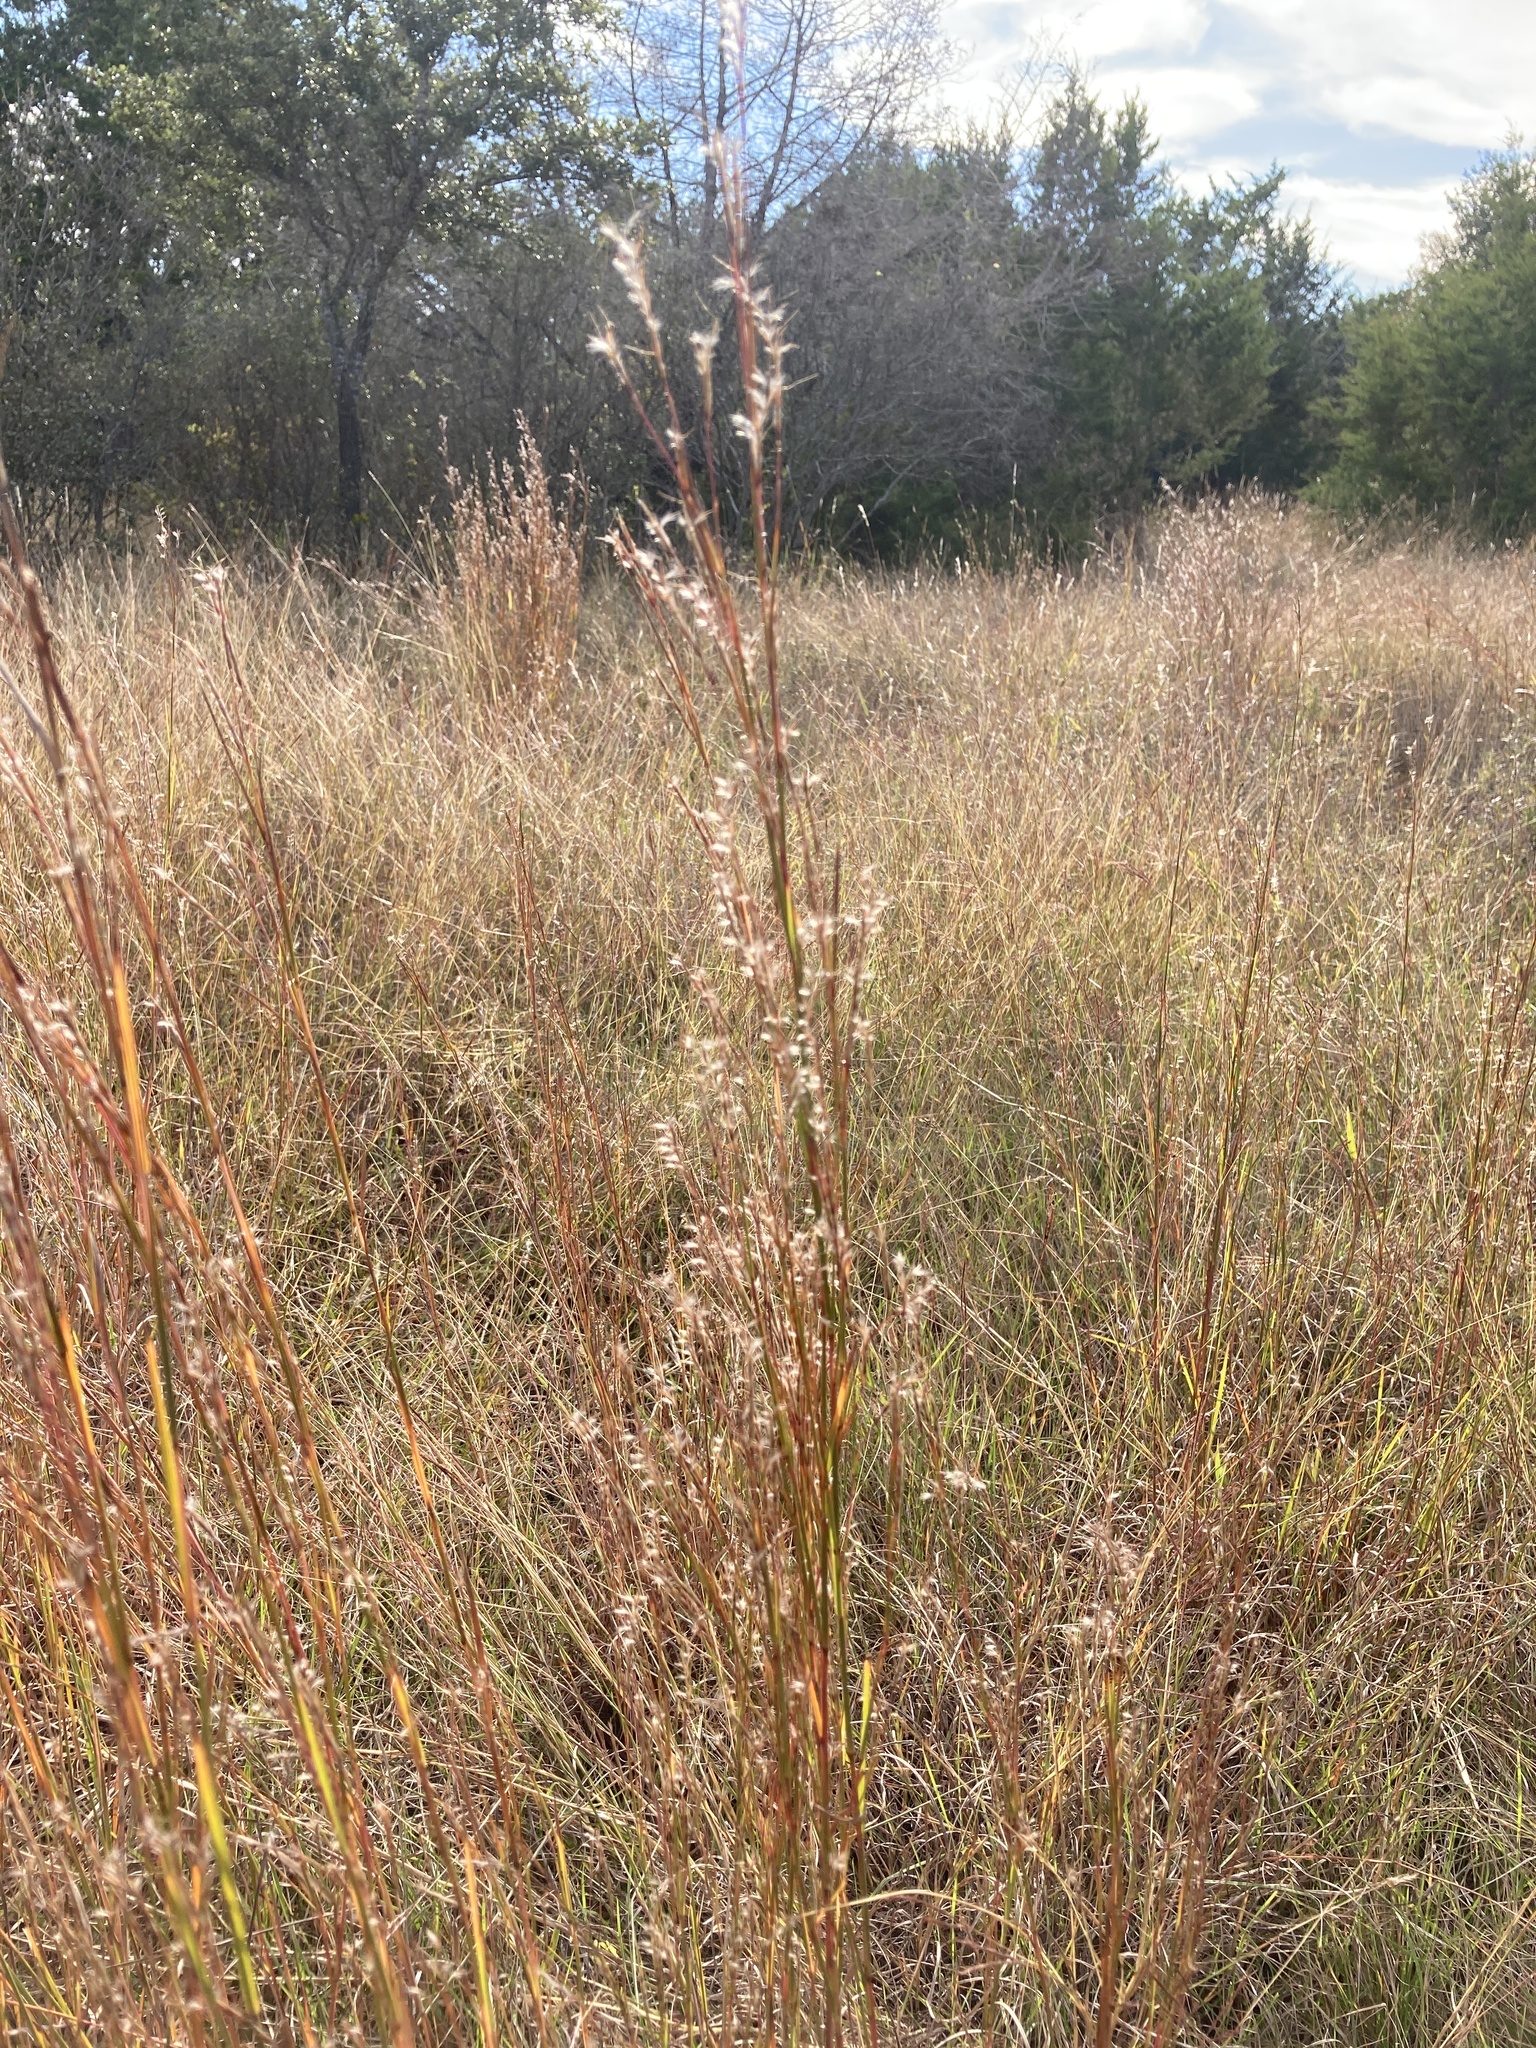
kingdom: Plantae
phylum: Tracheophyta
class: Liliopsida
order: Poales
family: Poaceae
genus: Schizachyrium
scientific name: Schizachyrium scoparium
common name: Little bluestem
